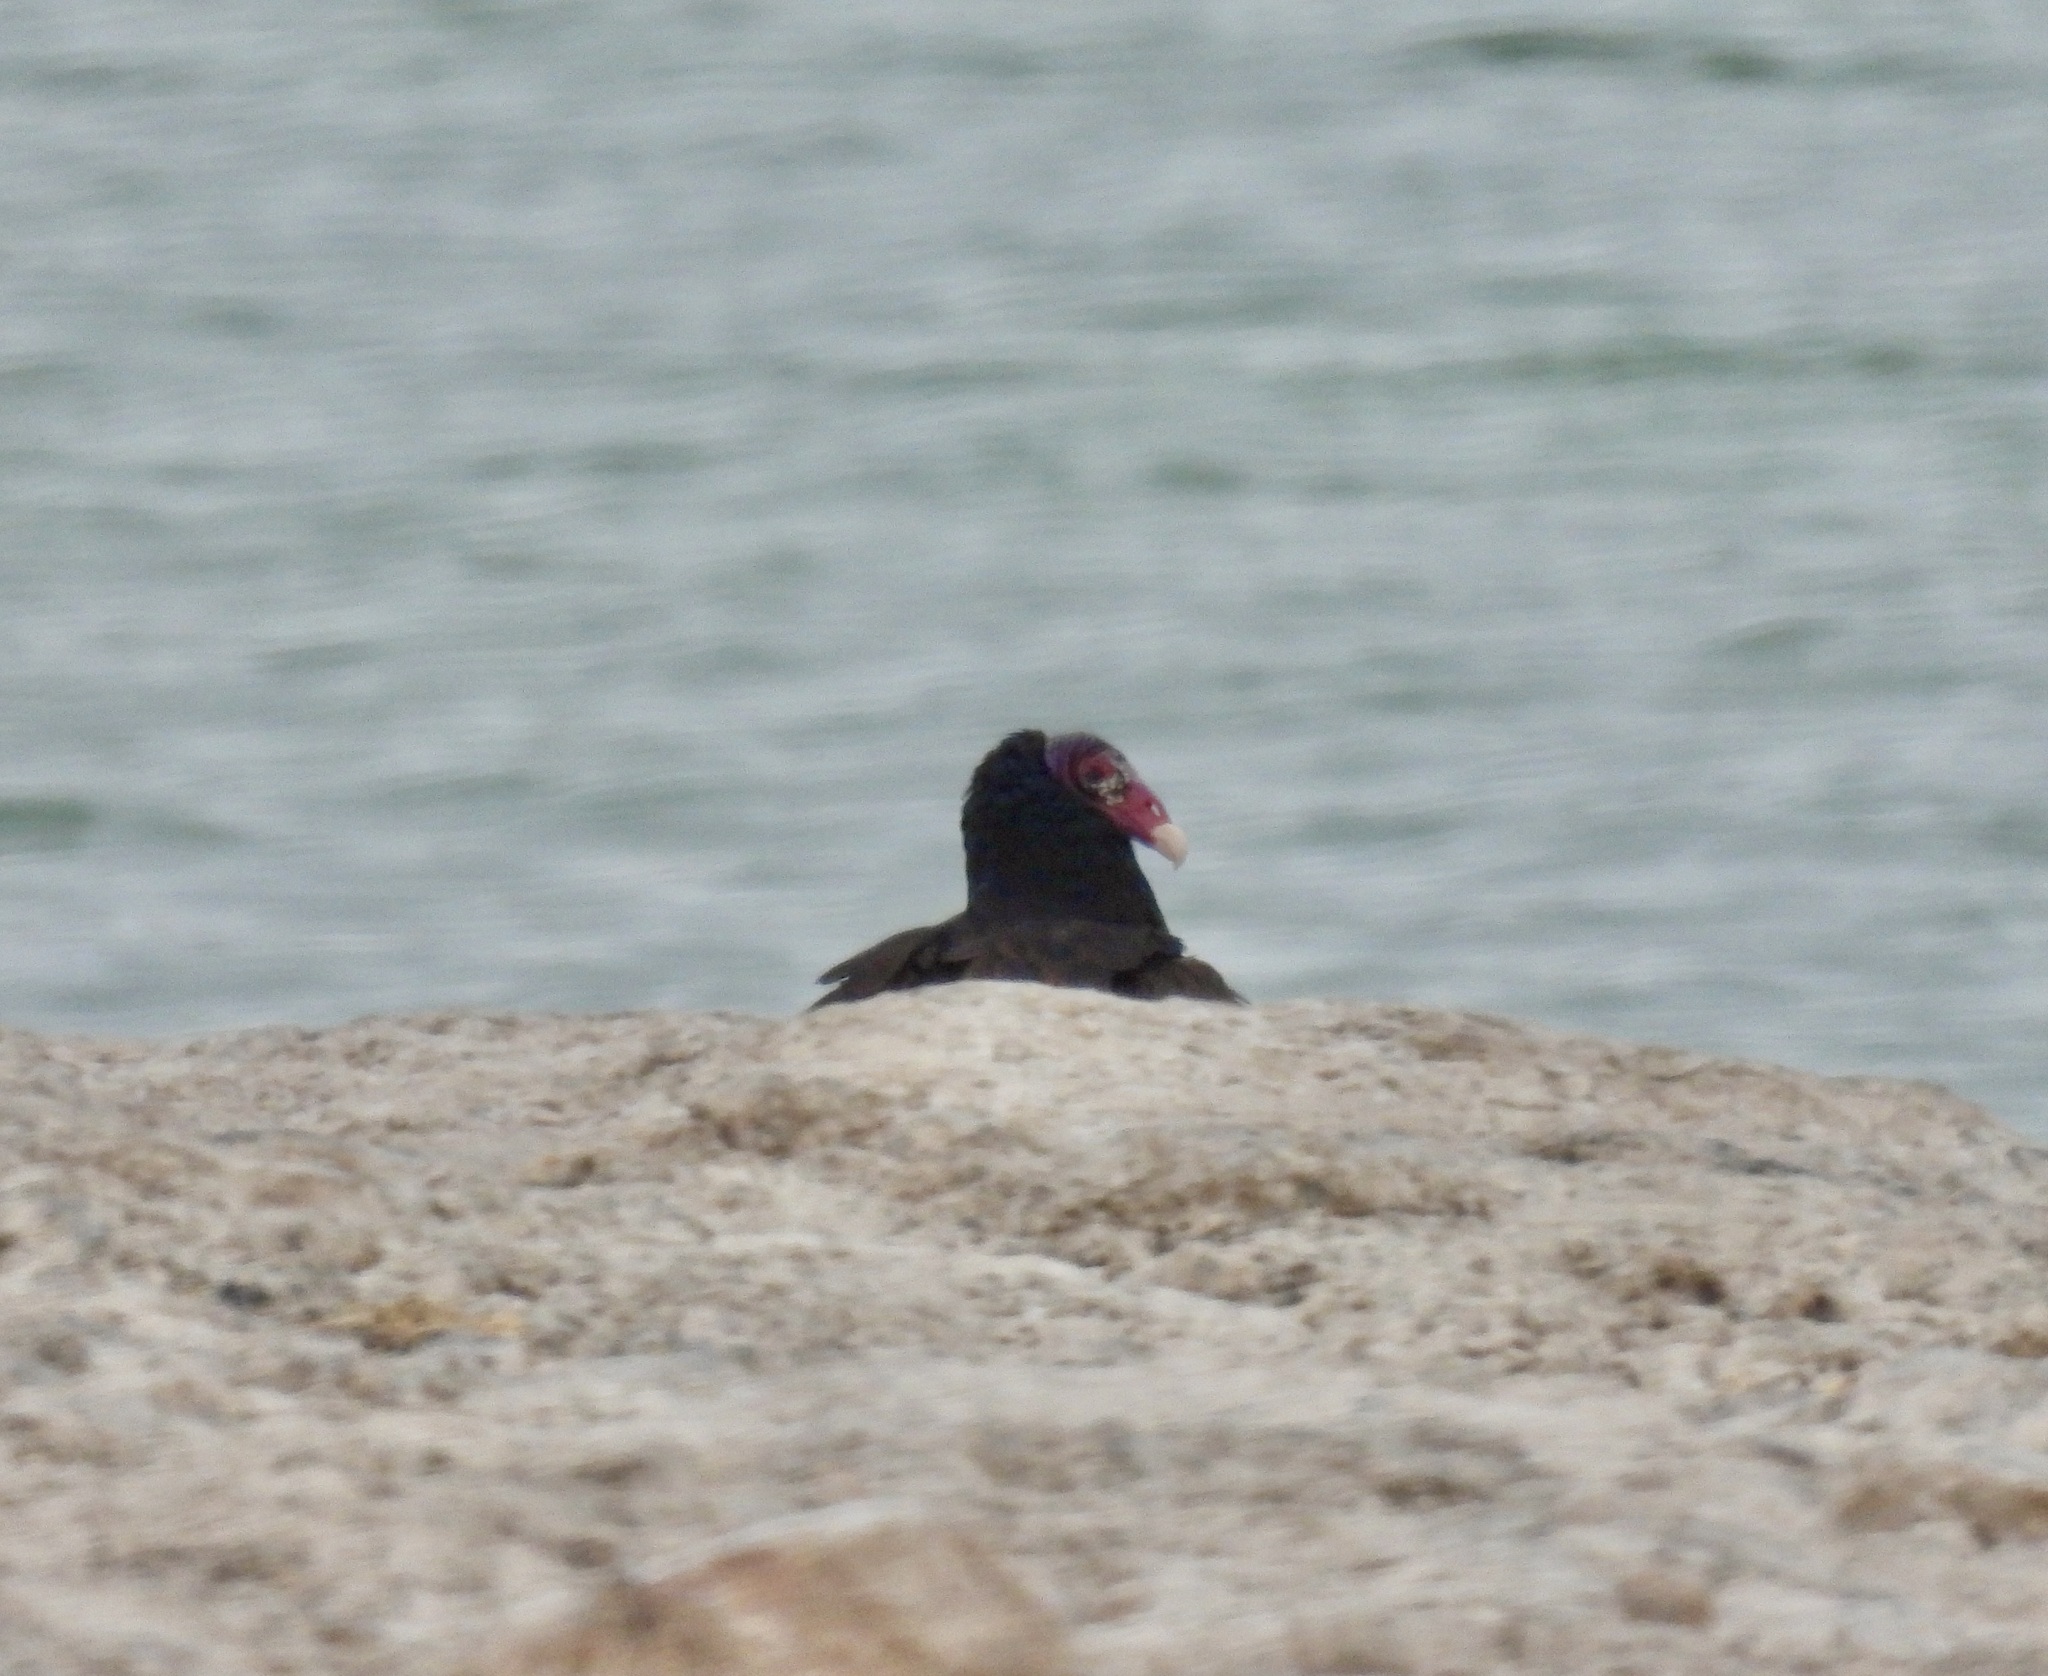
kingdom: Animalia
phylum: Chordata
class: Aves
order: Accipitriformes
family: Cathartidae
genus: Cathartes
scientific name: Cathartes aura
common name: Turkey vulture
